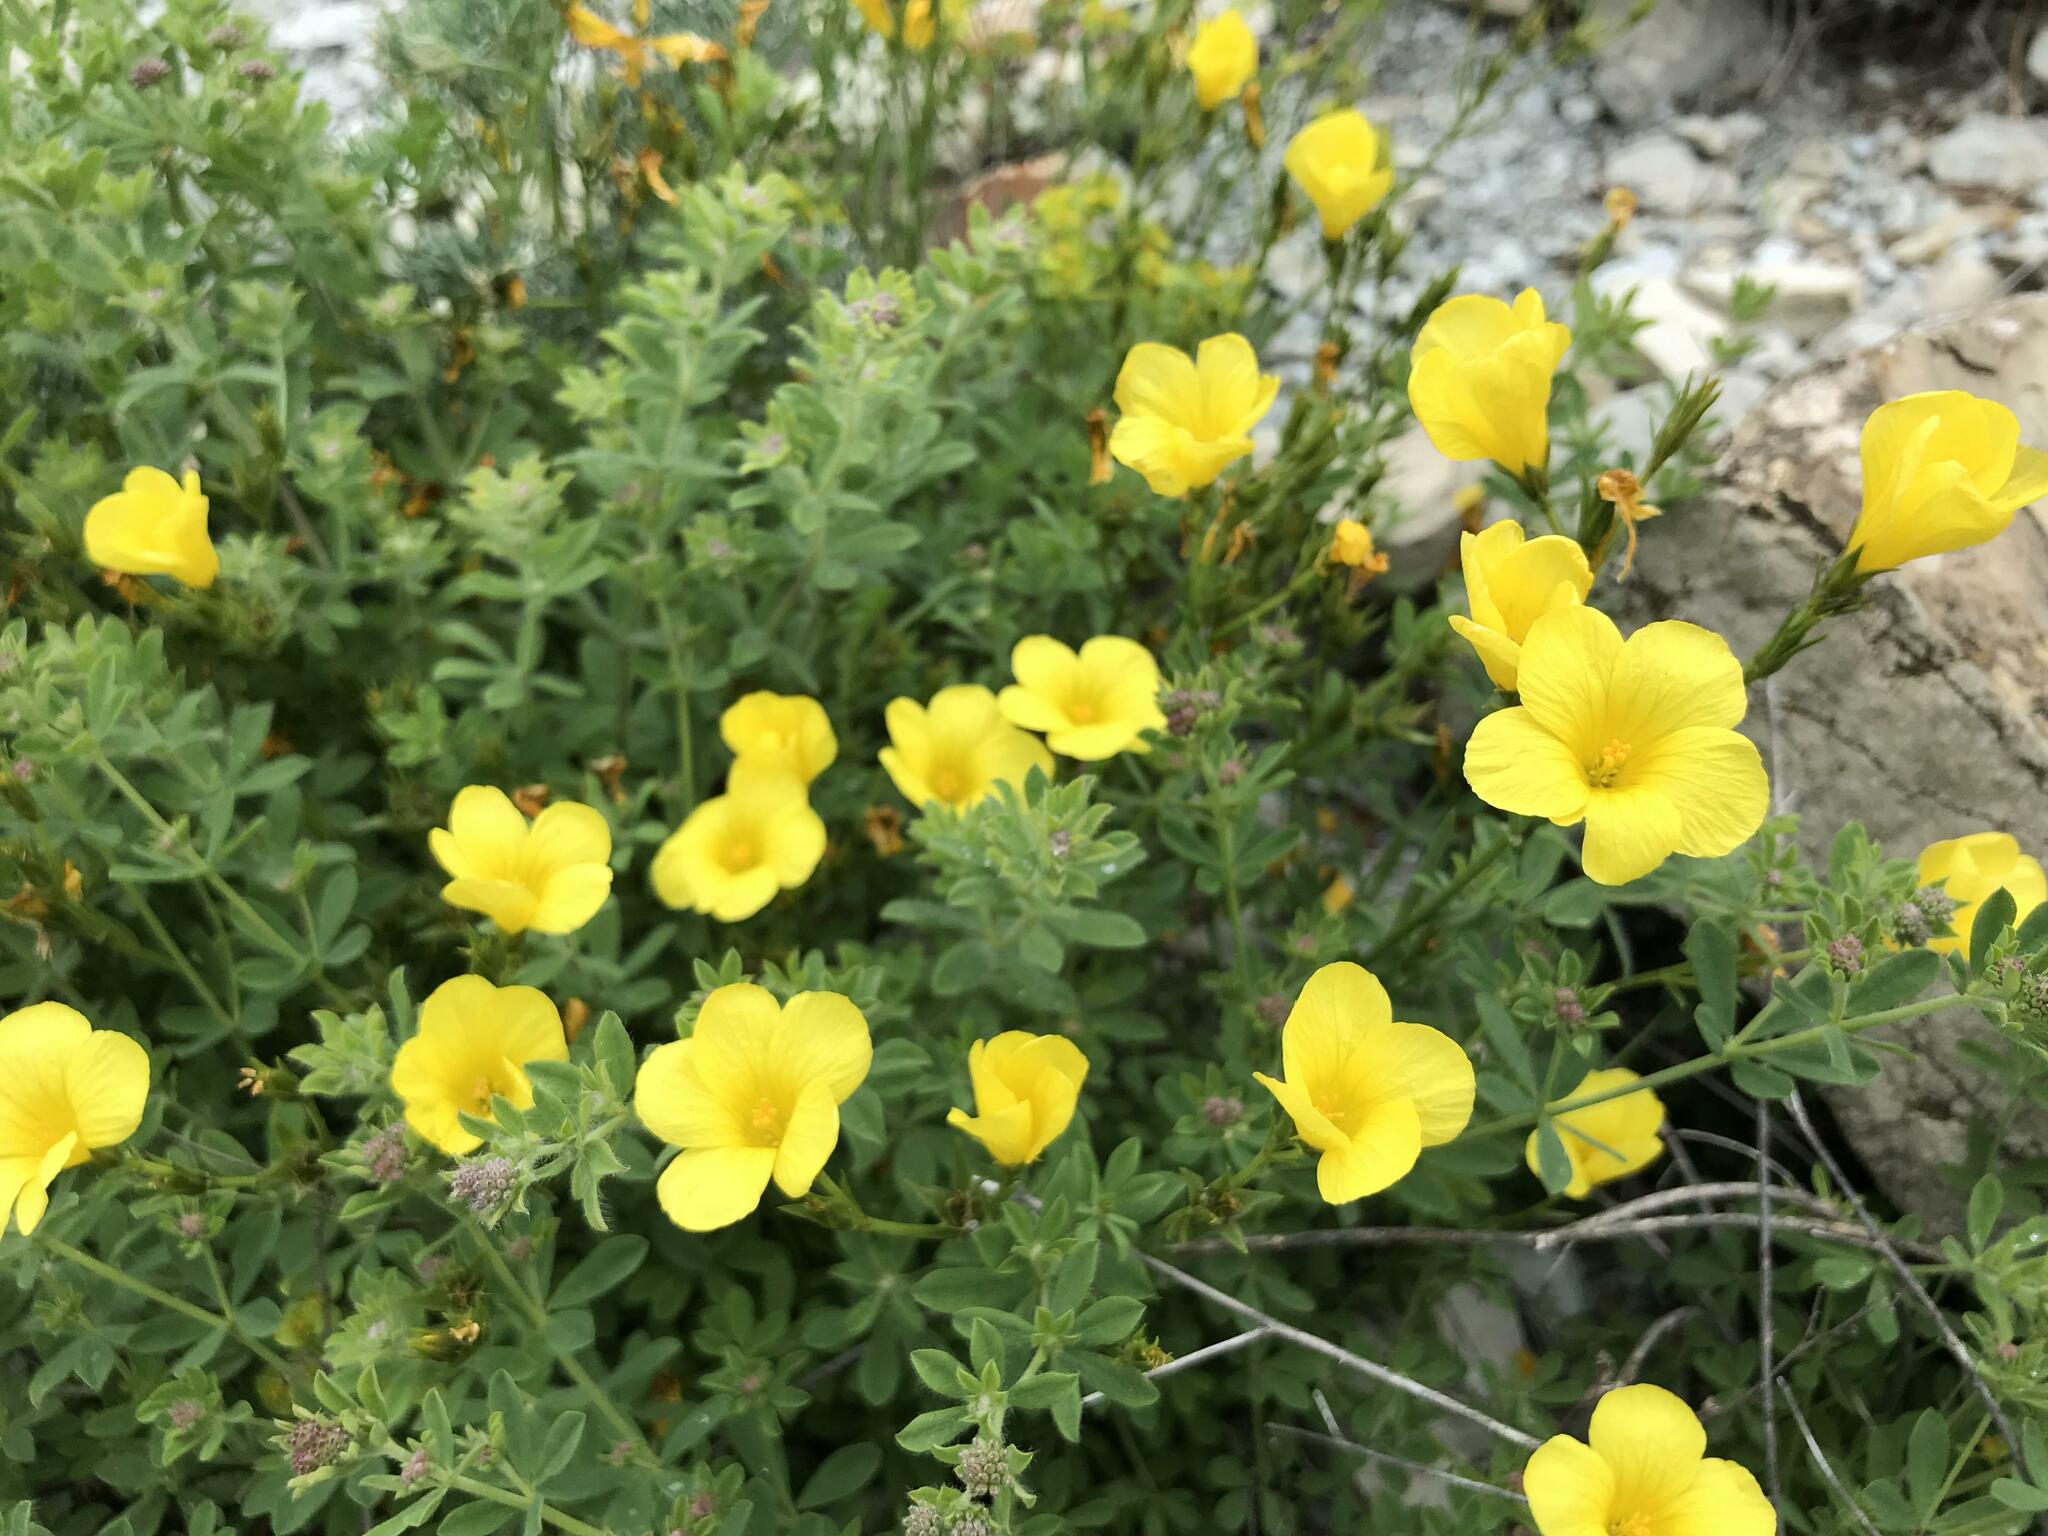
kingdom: Plantae
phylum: Tracheophyta
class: Magnoliopsida
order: Malpighiales
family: Linaceae
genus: Linum
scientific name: Linum tauricum
